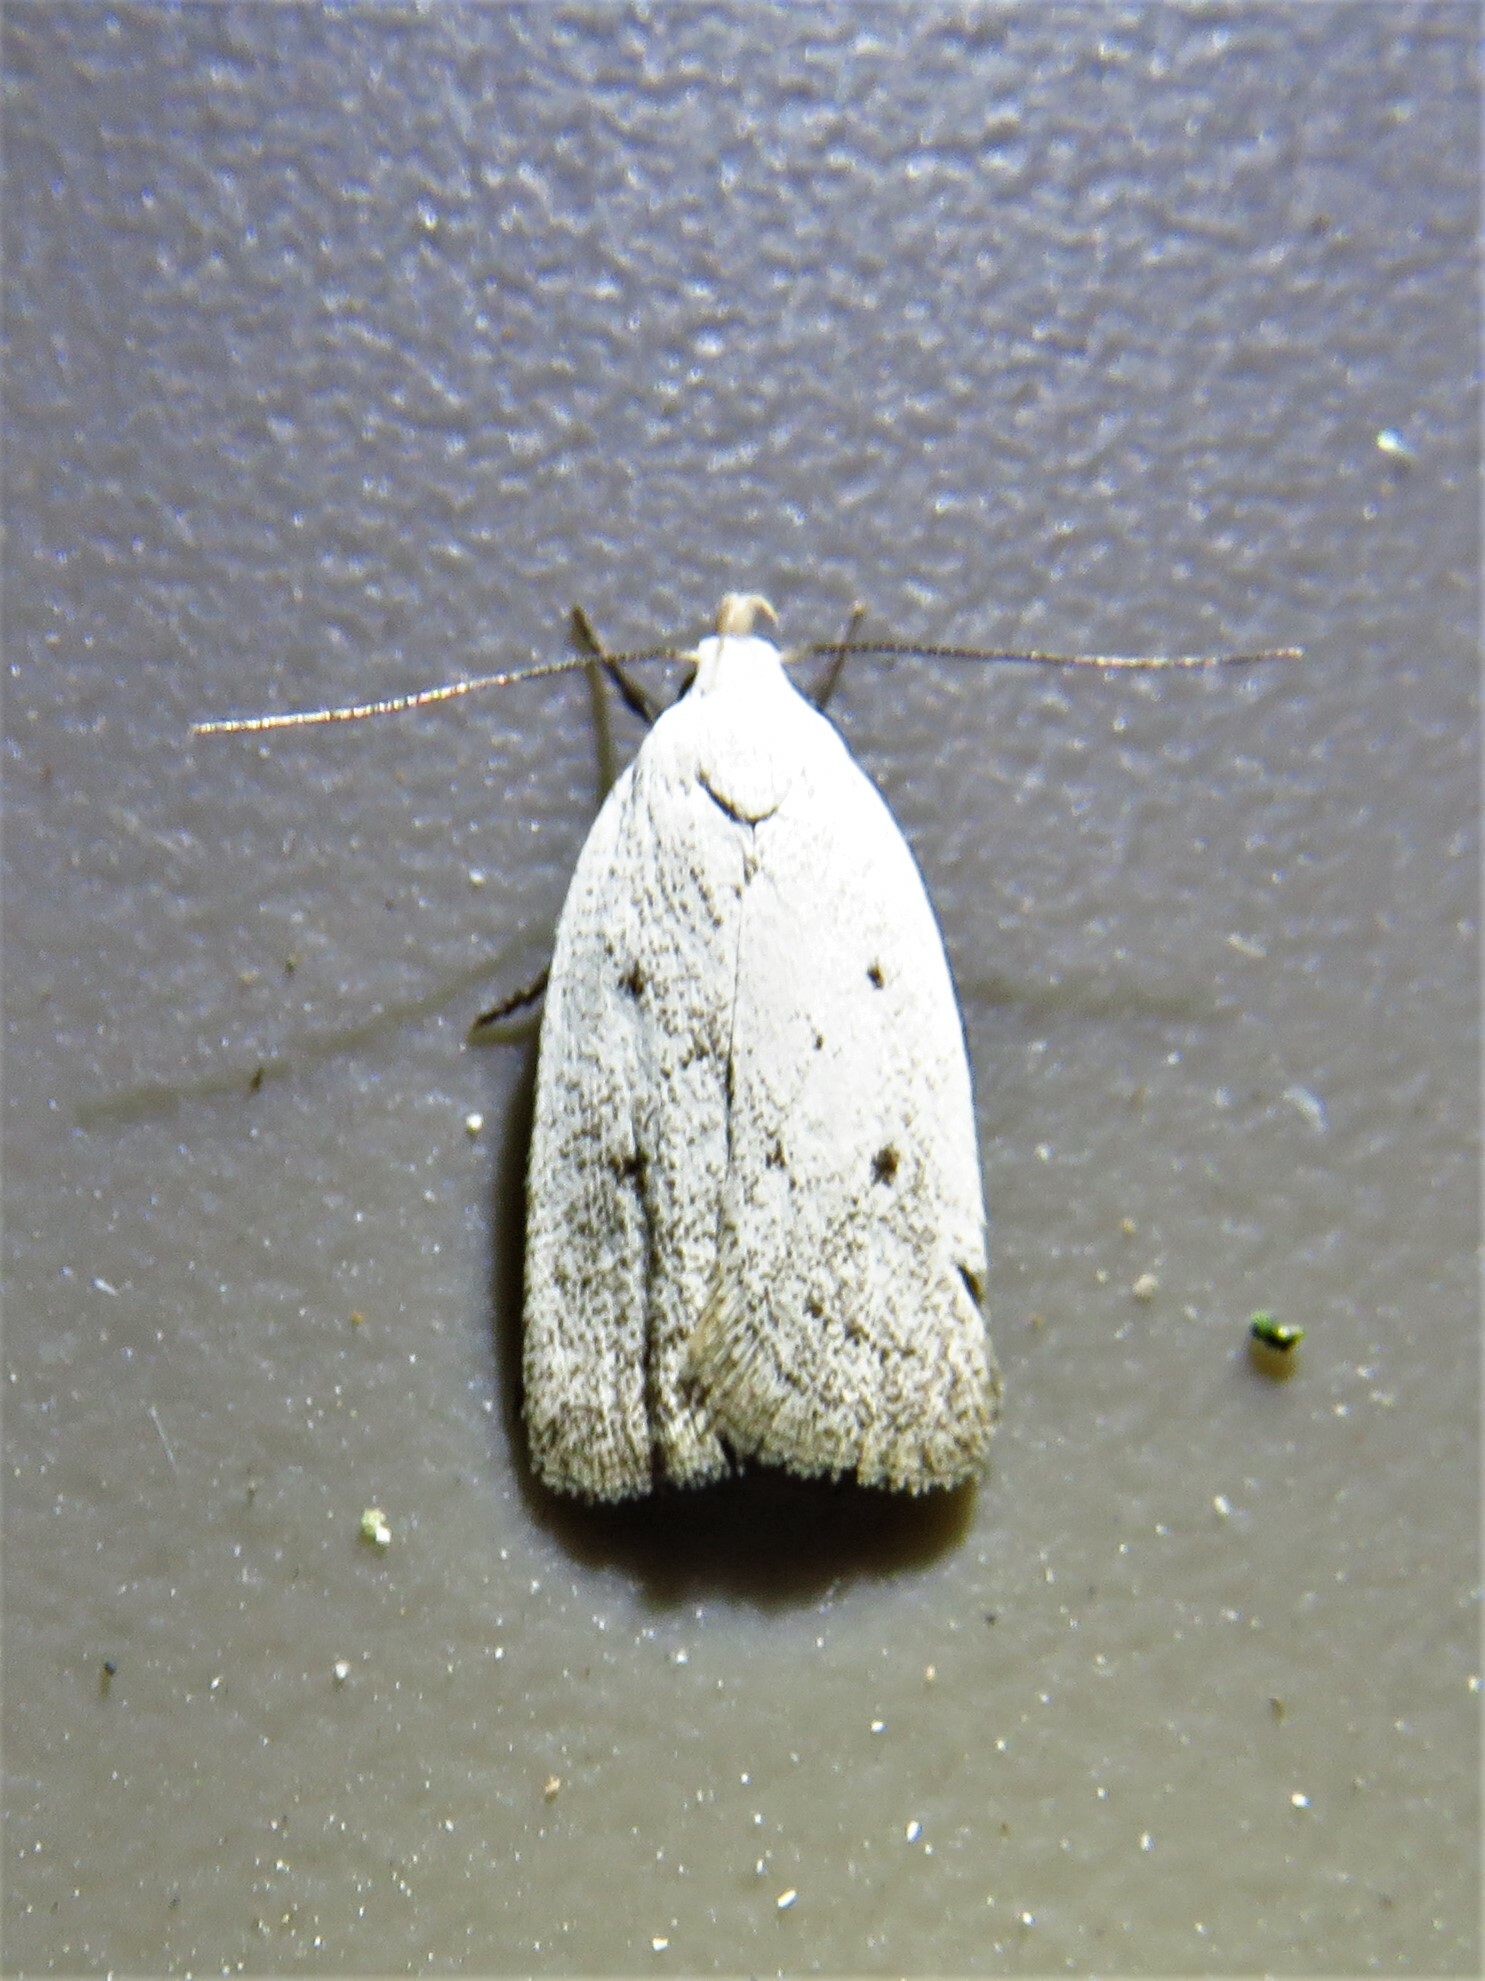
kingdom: Animalia
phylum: Arthropoda
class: Insecta
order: Lepidoptera
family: Oecophoridae
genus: Inga
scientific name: Inga cretacea
